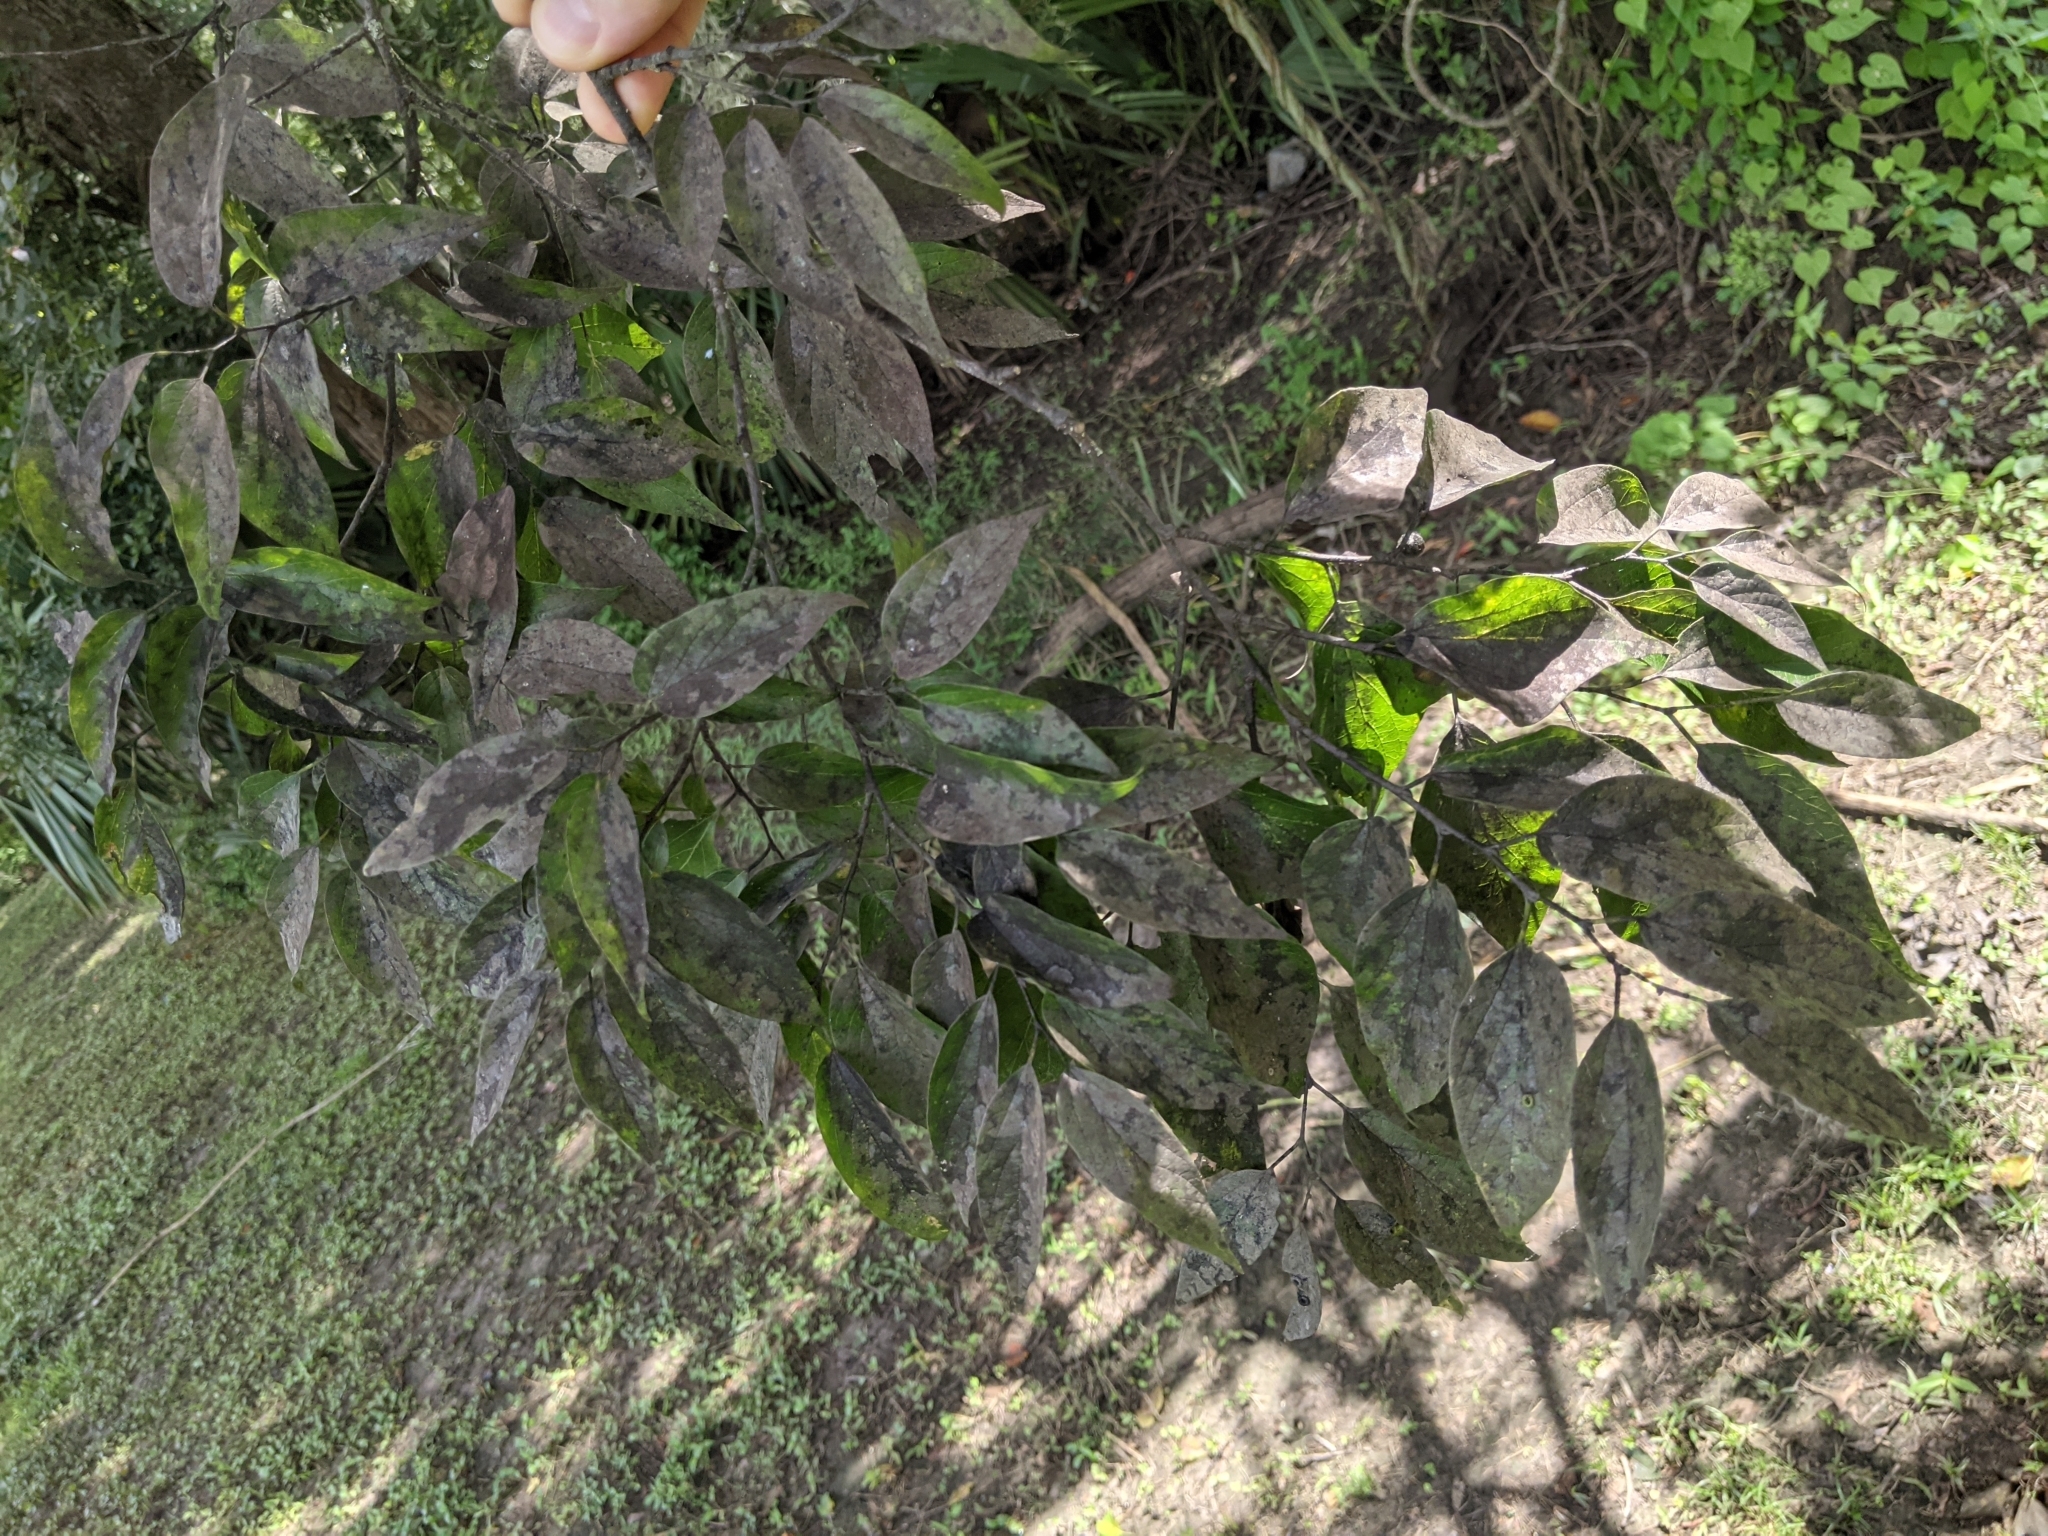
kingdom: Animalia
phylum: Arthropoda
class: Insecta
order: Hemiptera
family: Aphididae
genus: Shivaphis
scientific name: Shivaphis celti
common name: Asian wooly hackberry aphid
